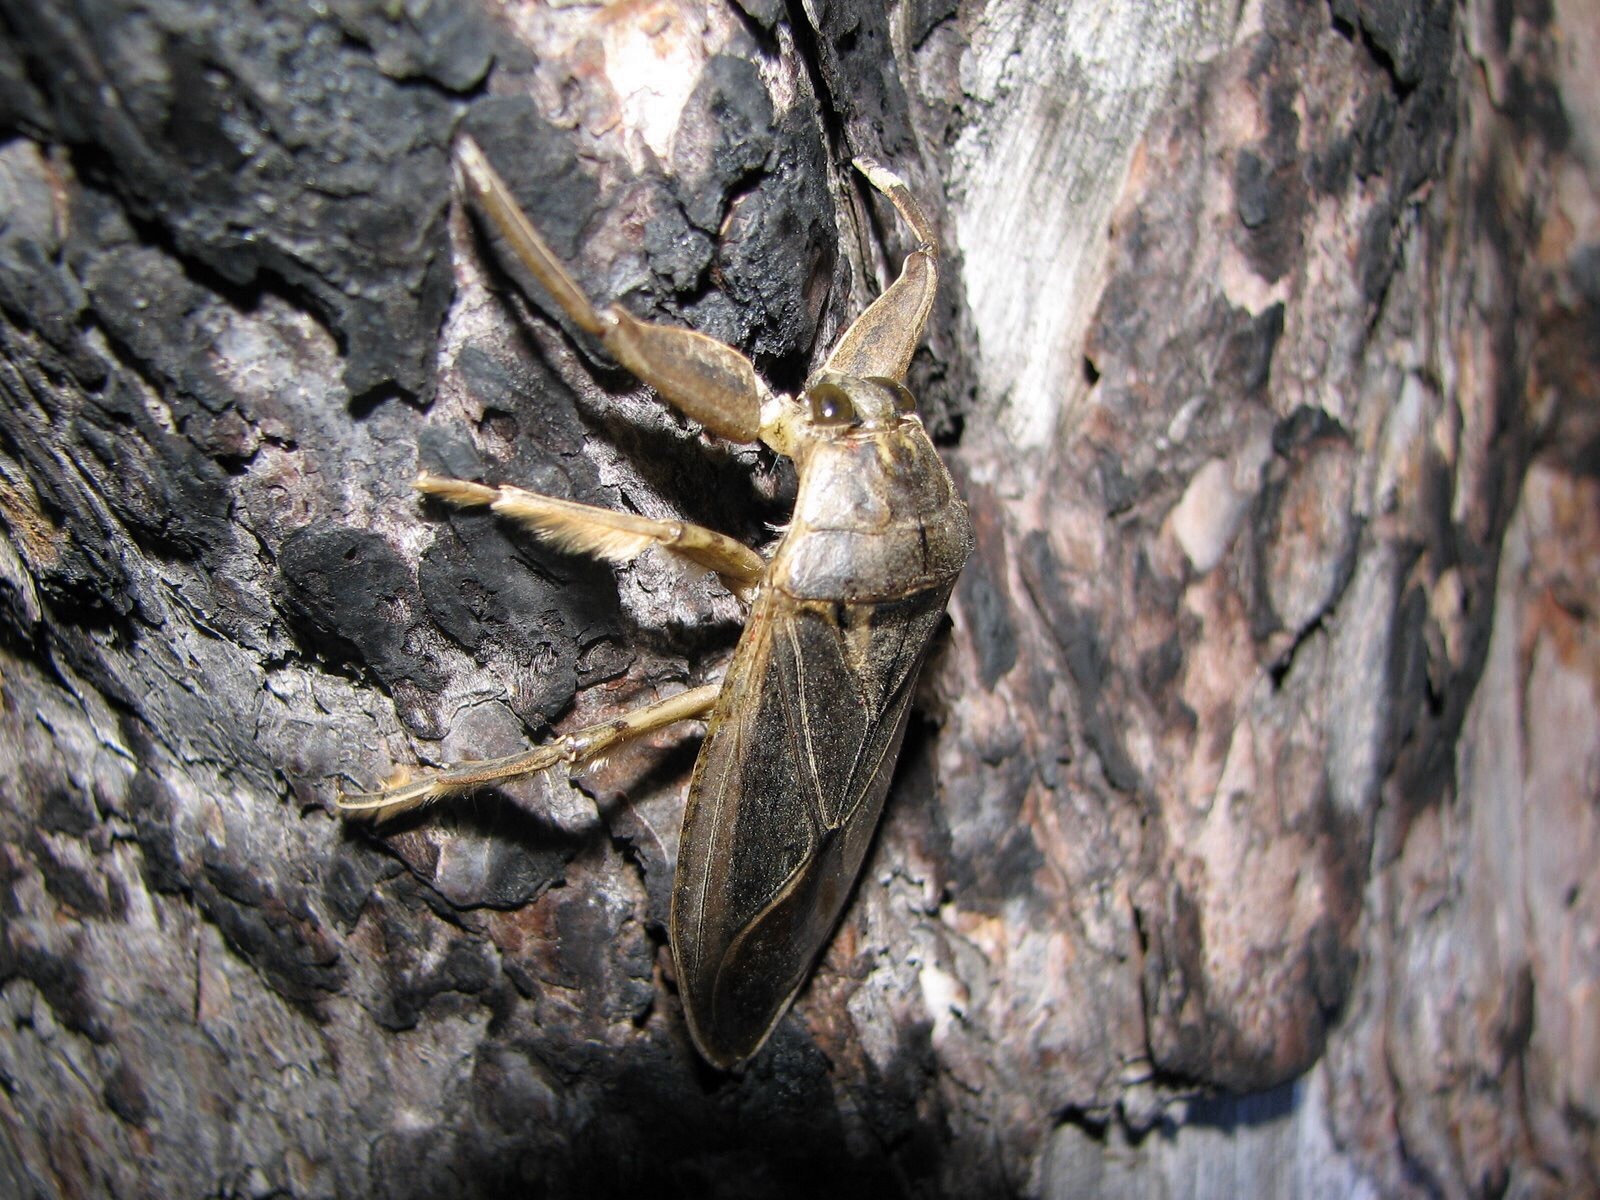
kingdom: Animalia
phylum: Arthropoda
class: Insecta
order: Hemiptera
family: Belostomatidae
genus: Lethocerus
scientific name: Lethocerus americanus
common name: Giant water bug
